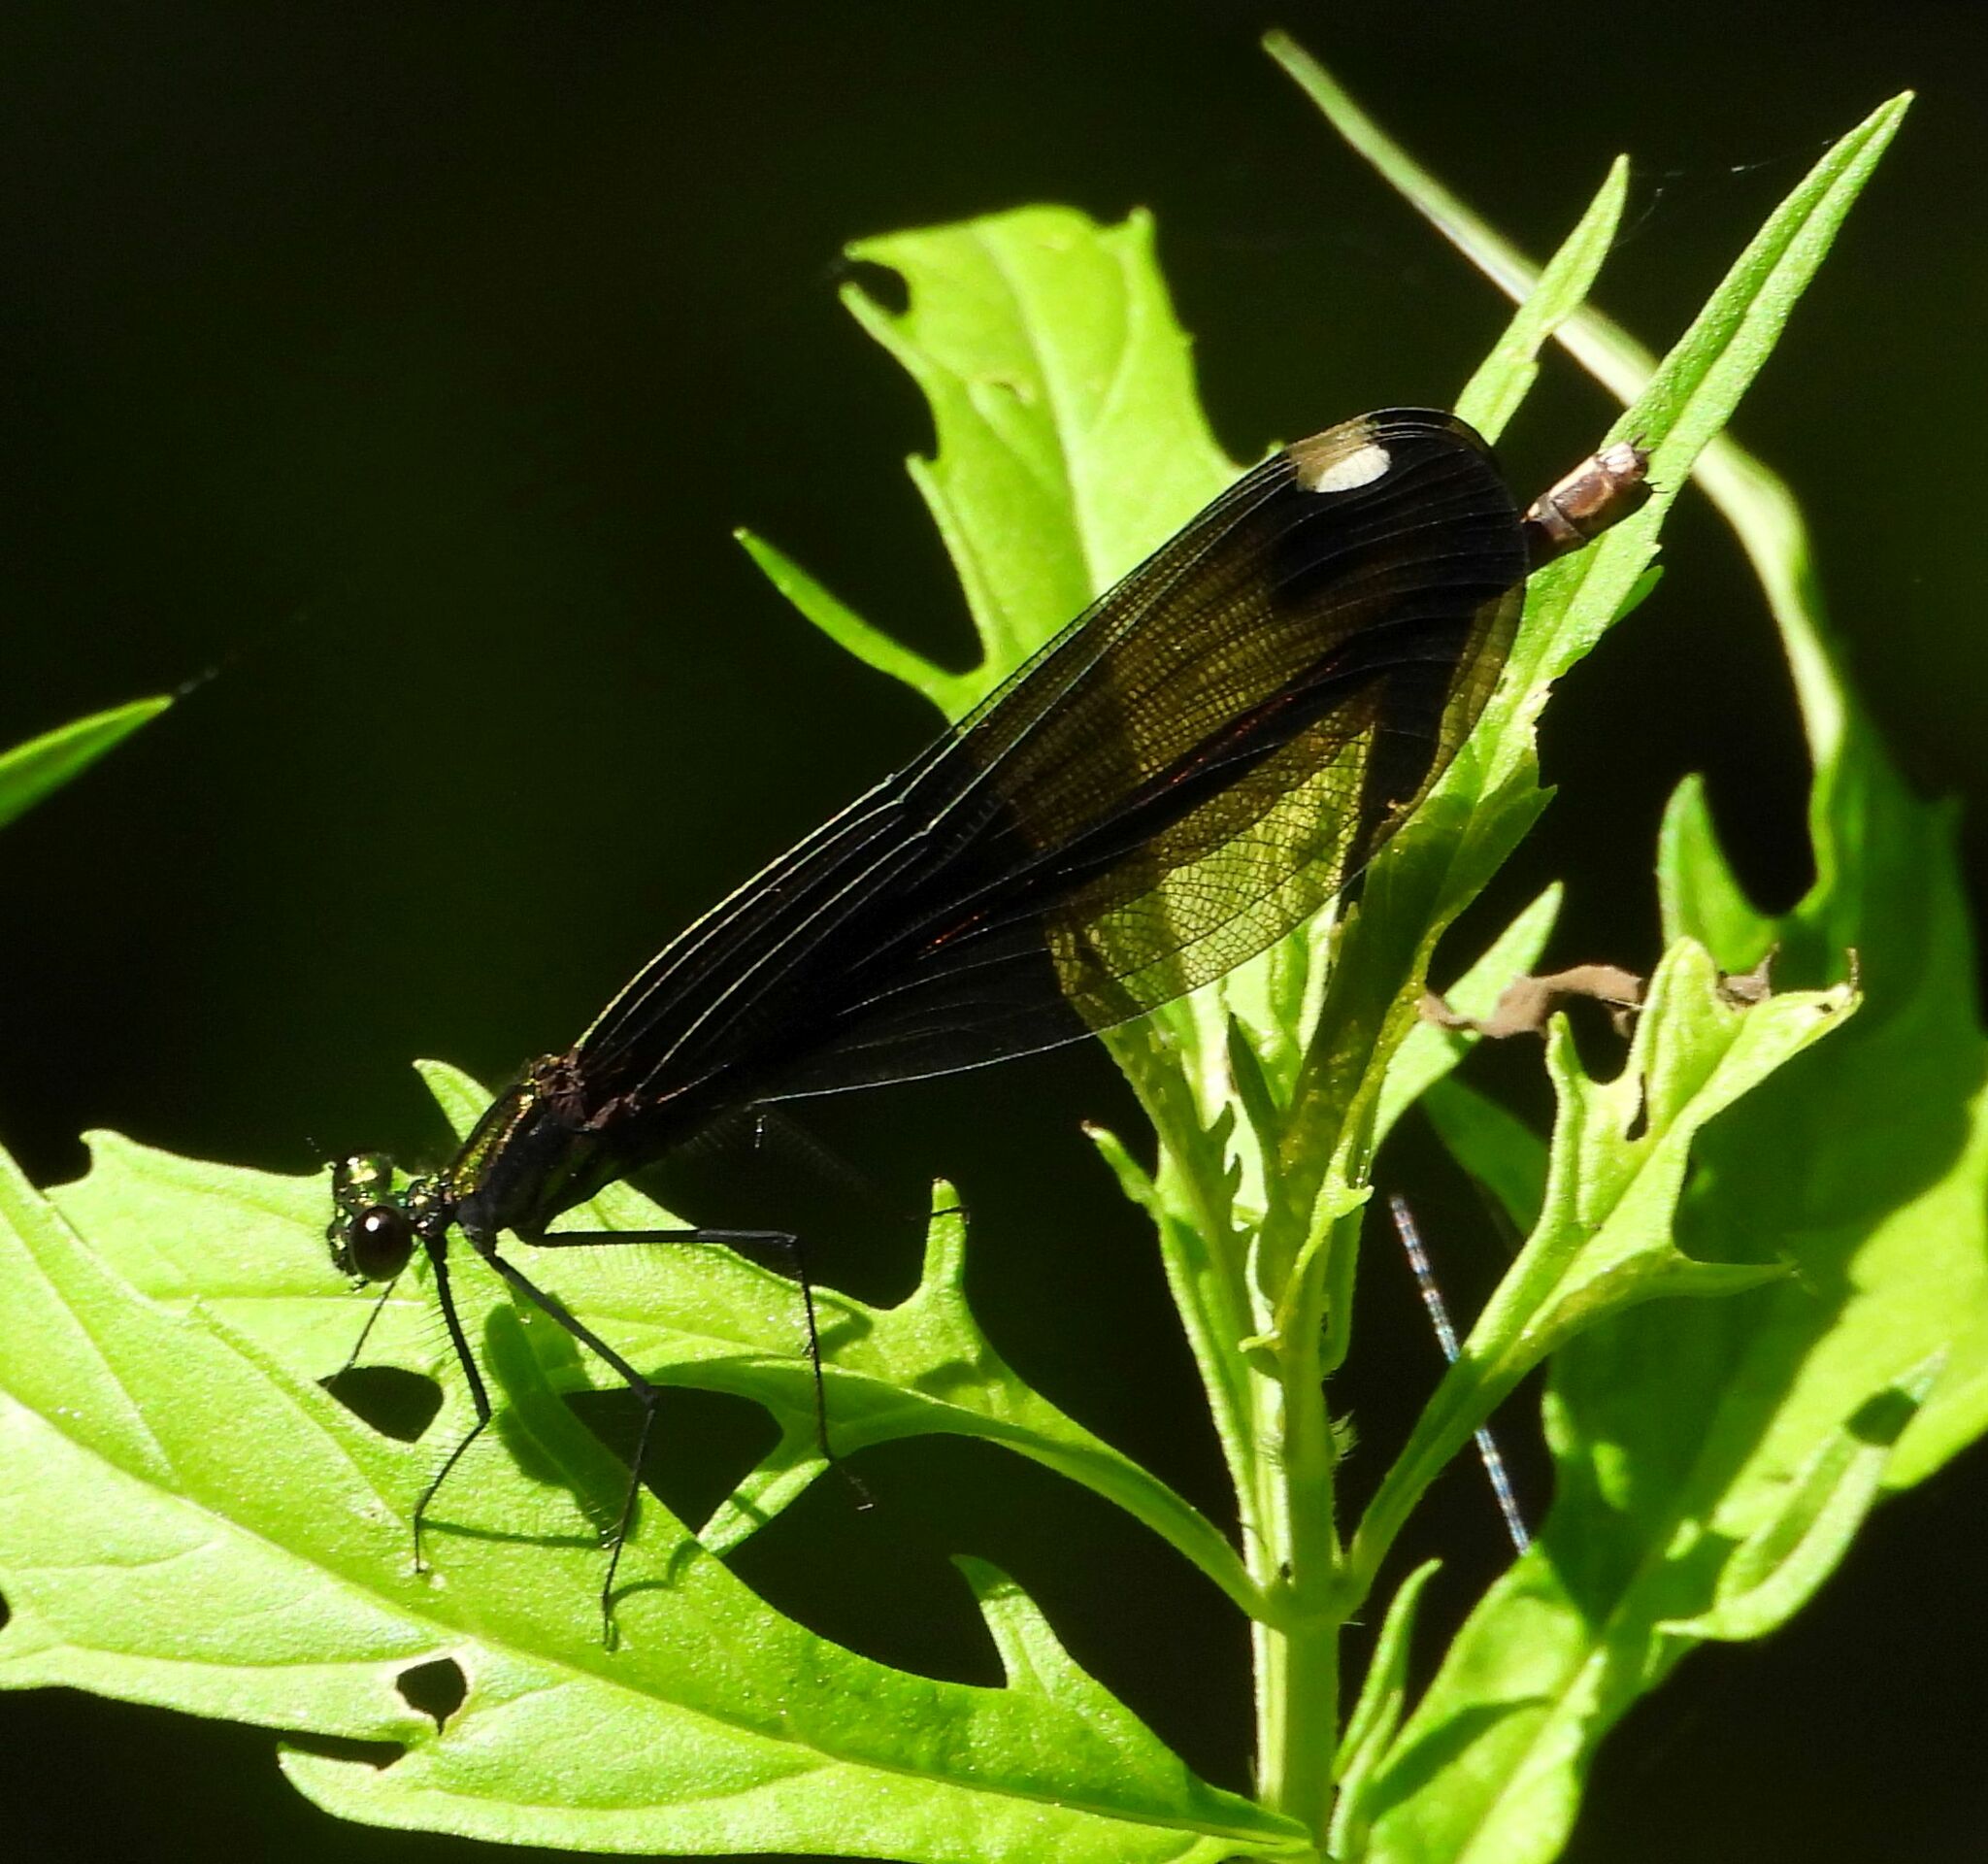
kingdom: Animalia
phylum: Arthropoda
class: Insecta
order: Odonata
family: Calopterygidae
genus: Calopteryx
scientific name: Calopteryx maculata
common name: Ebony jewelwing
